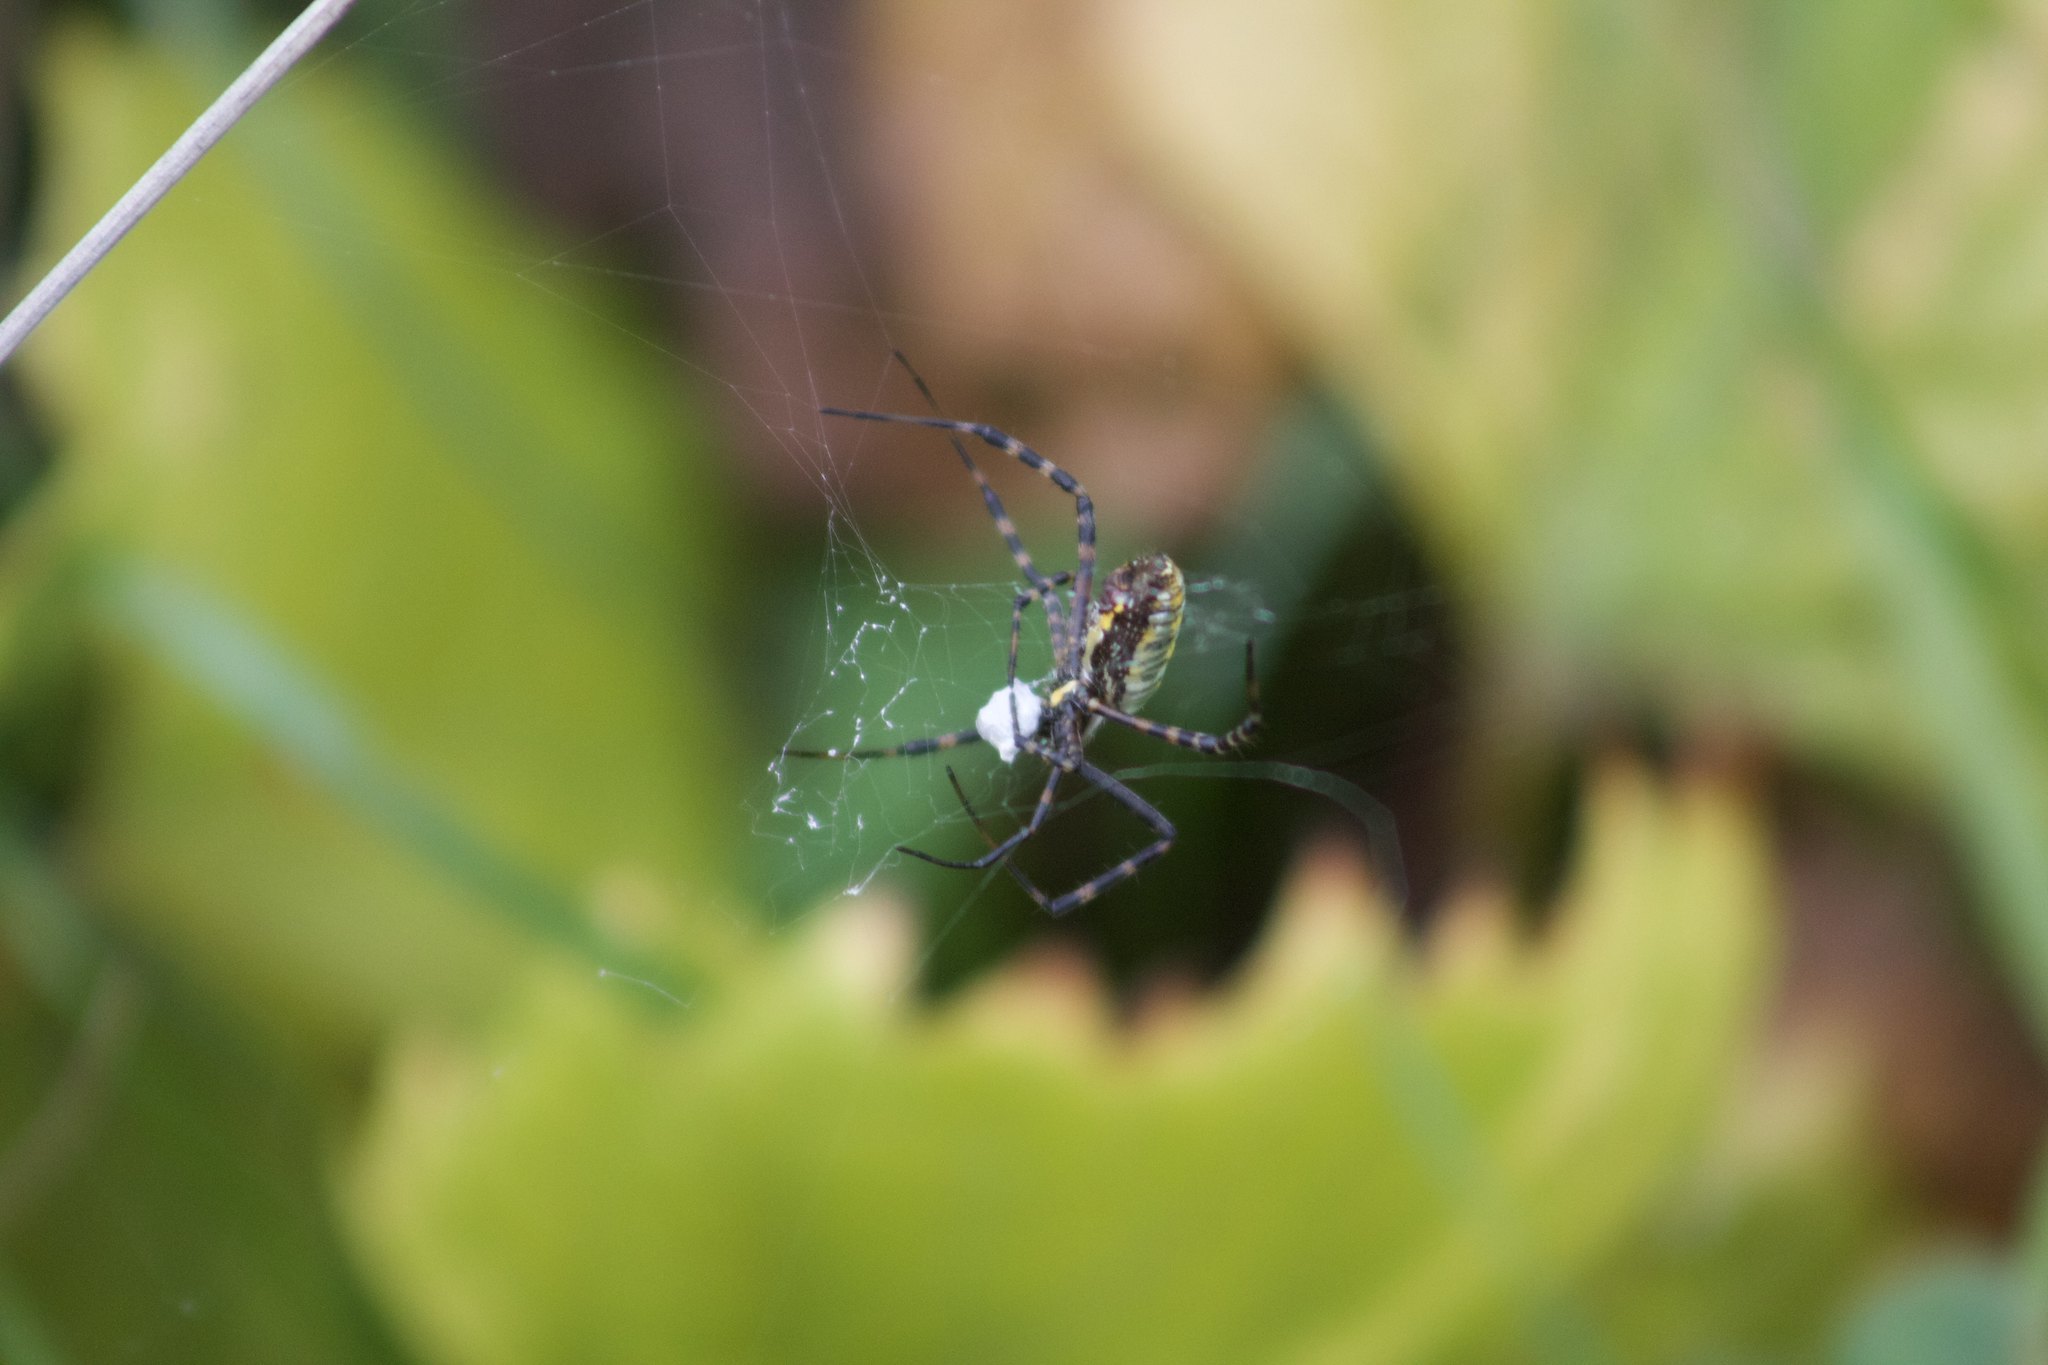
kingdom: Animalia
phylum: Arthropoda
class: Arachnida
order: Araneae
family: Araneidae
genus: Argiope
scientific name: Argiope trifasciata
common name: Banded garden spider
